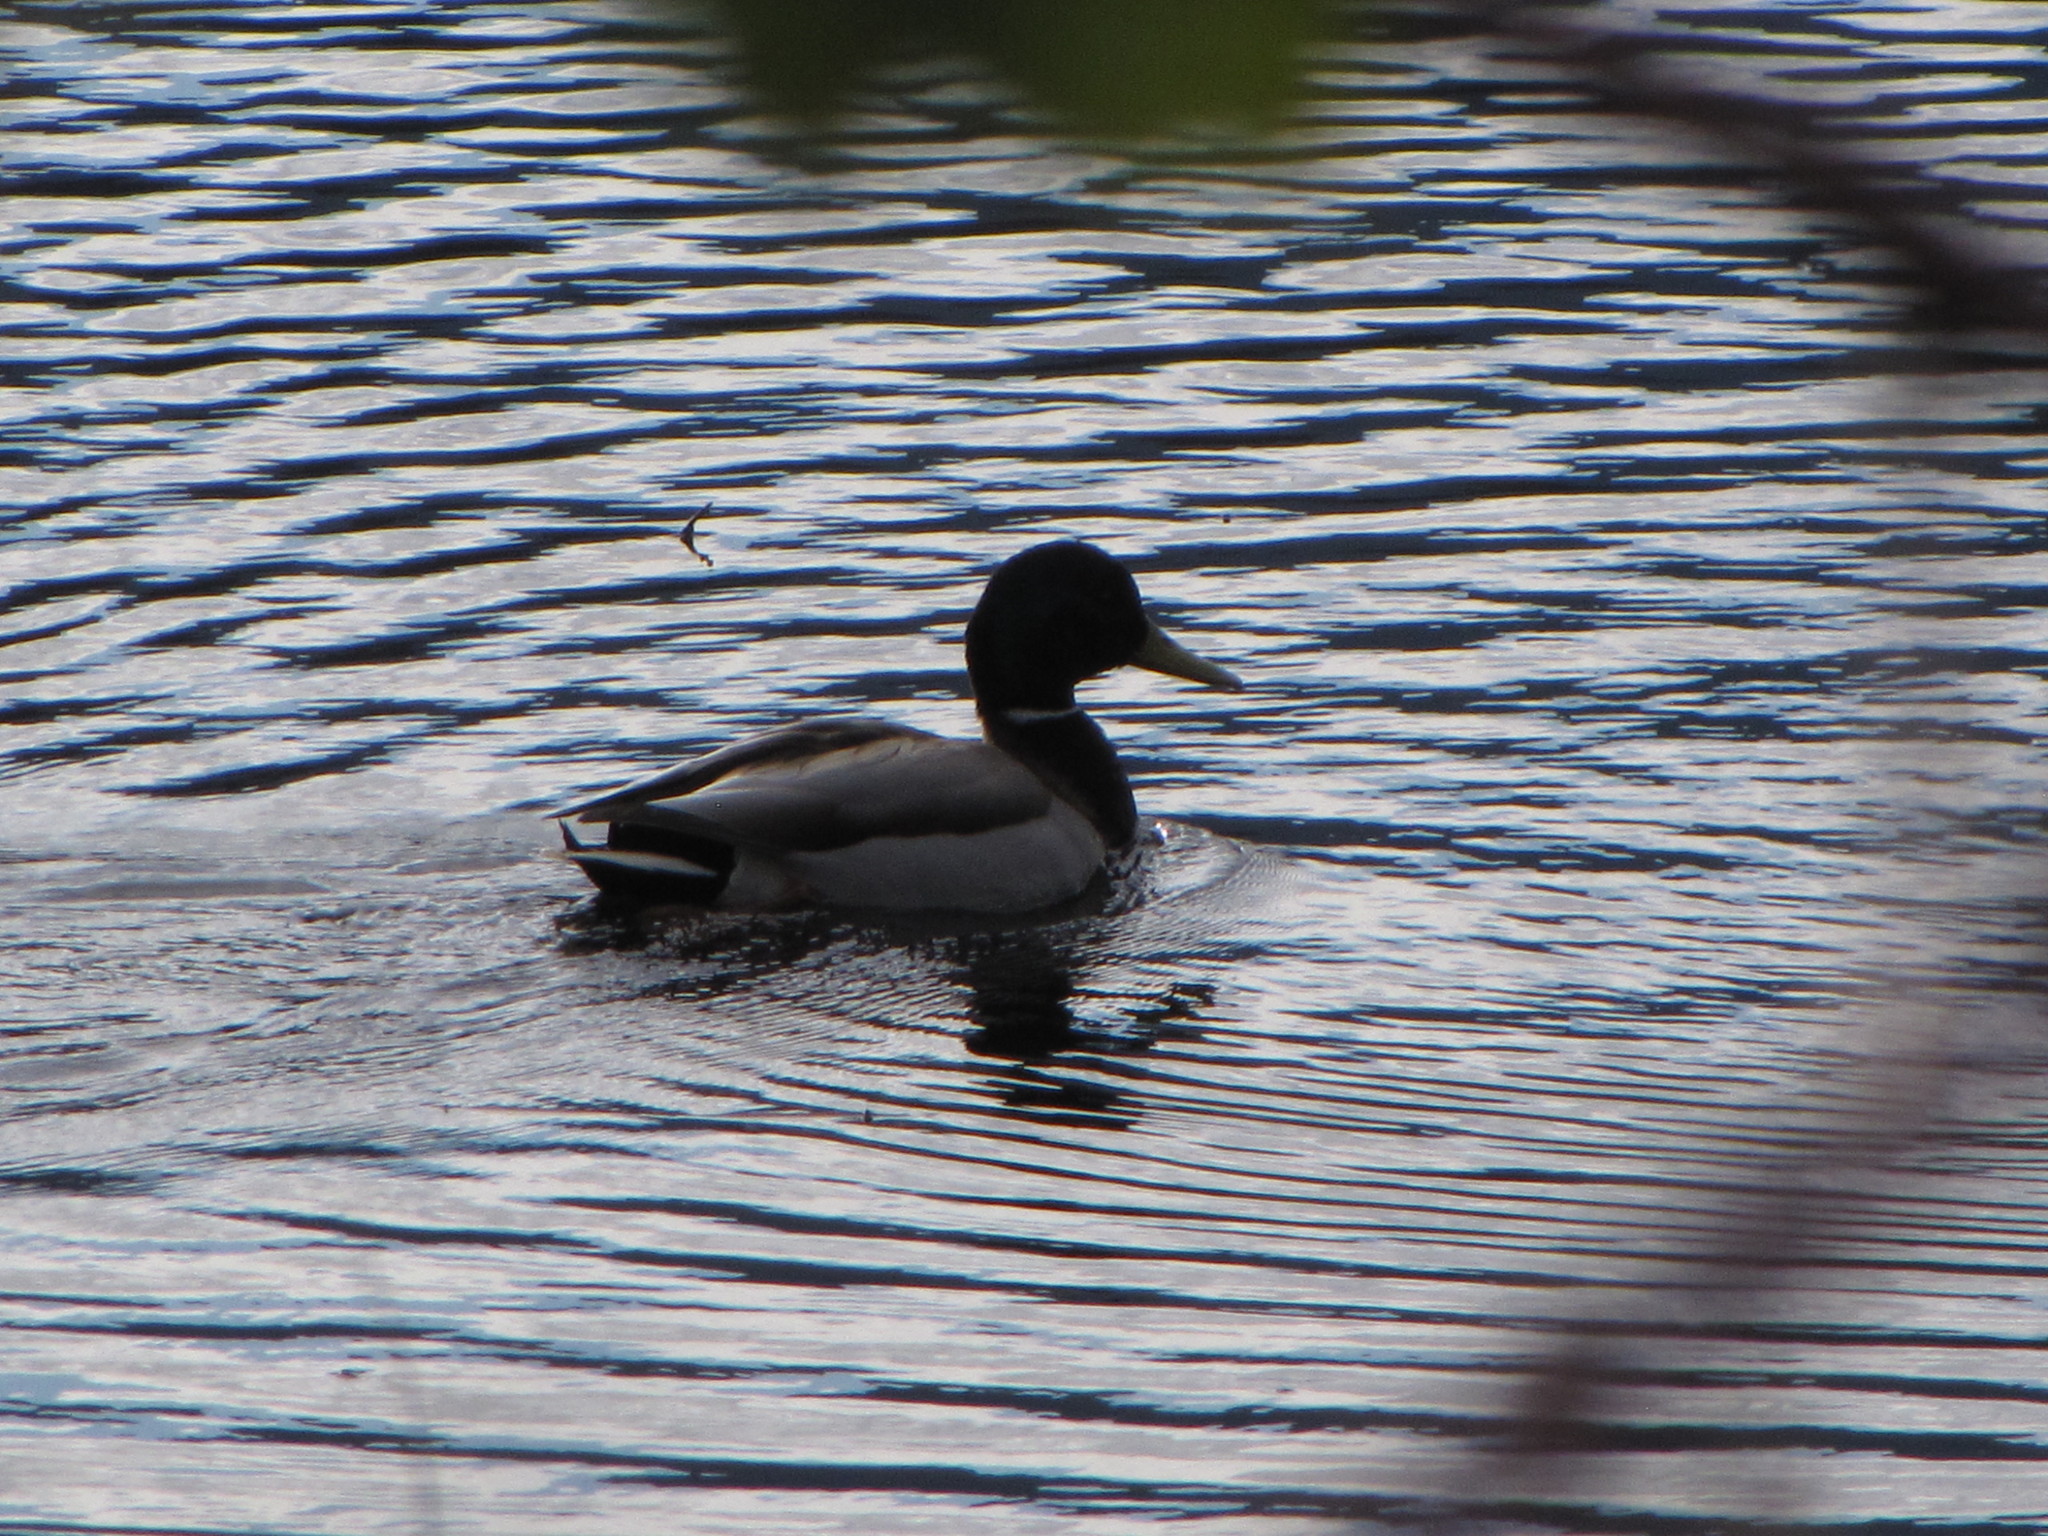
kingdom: Animalia
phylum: Chordata
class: Aves
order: Anseriformes
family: Anatidae
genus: Anas
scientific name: Anas platyrhynchos
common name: Mallard
